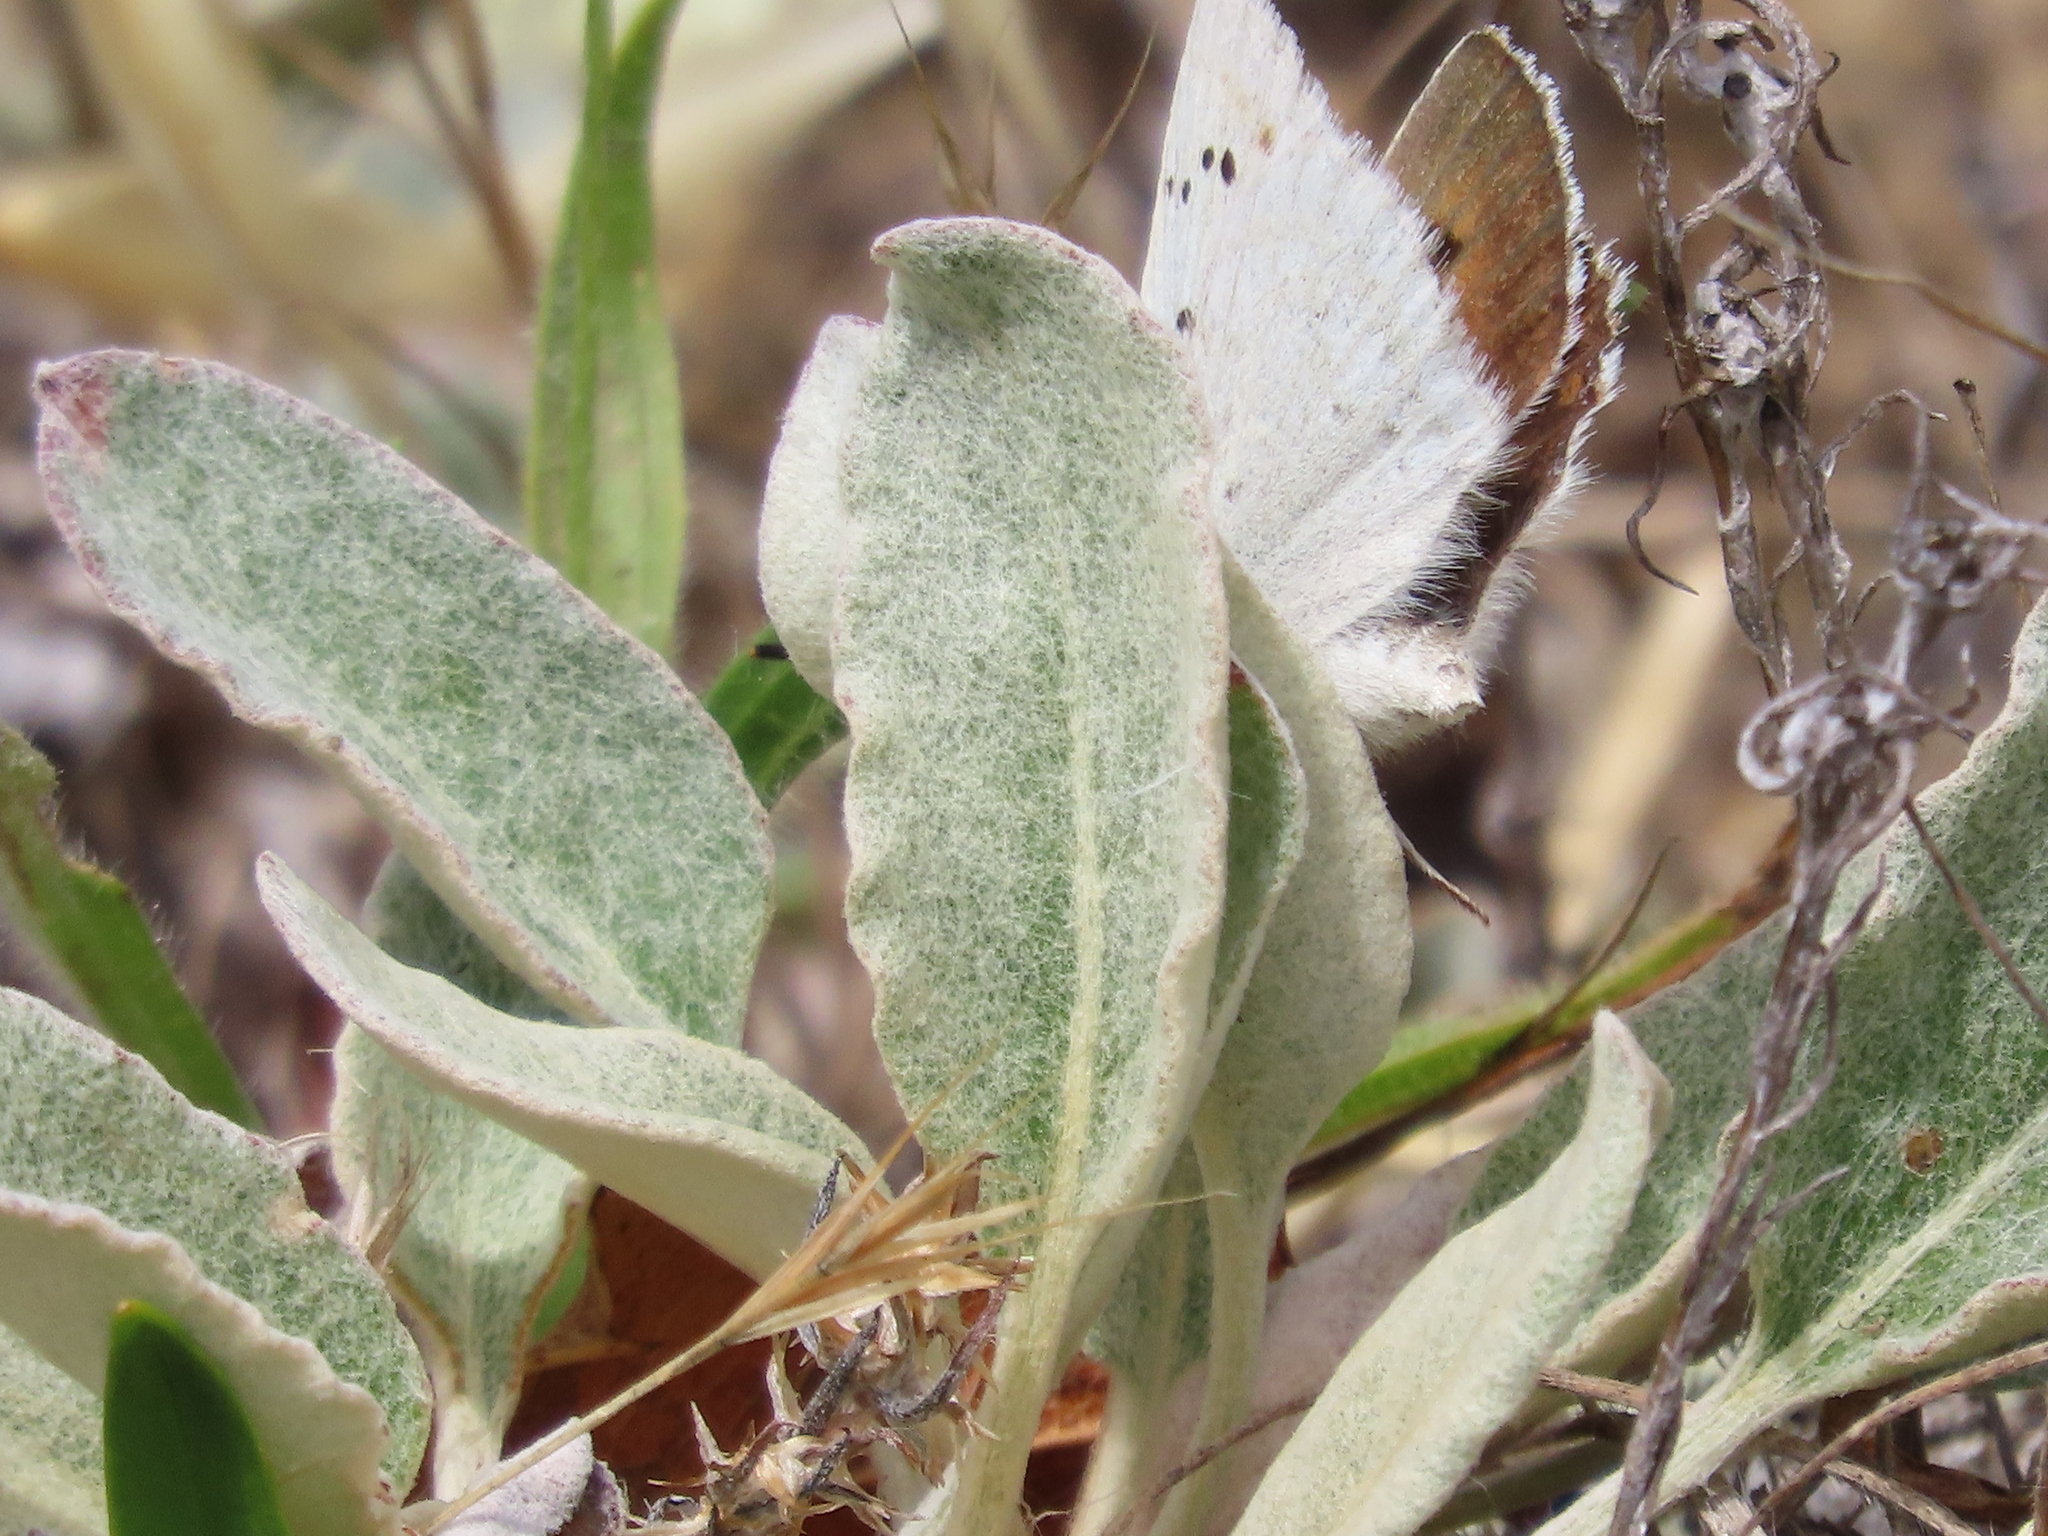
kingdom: Animalia
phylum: Arthropoda
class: Insecta
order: Lepidoptera
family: Lycaenidae
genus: Tharsalea
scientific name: Tharsalea heteronea
